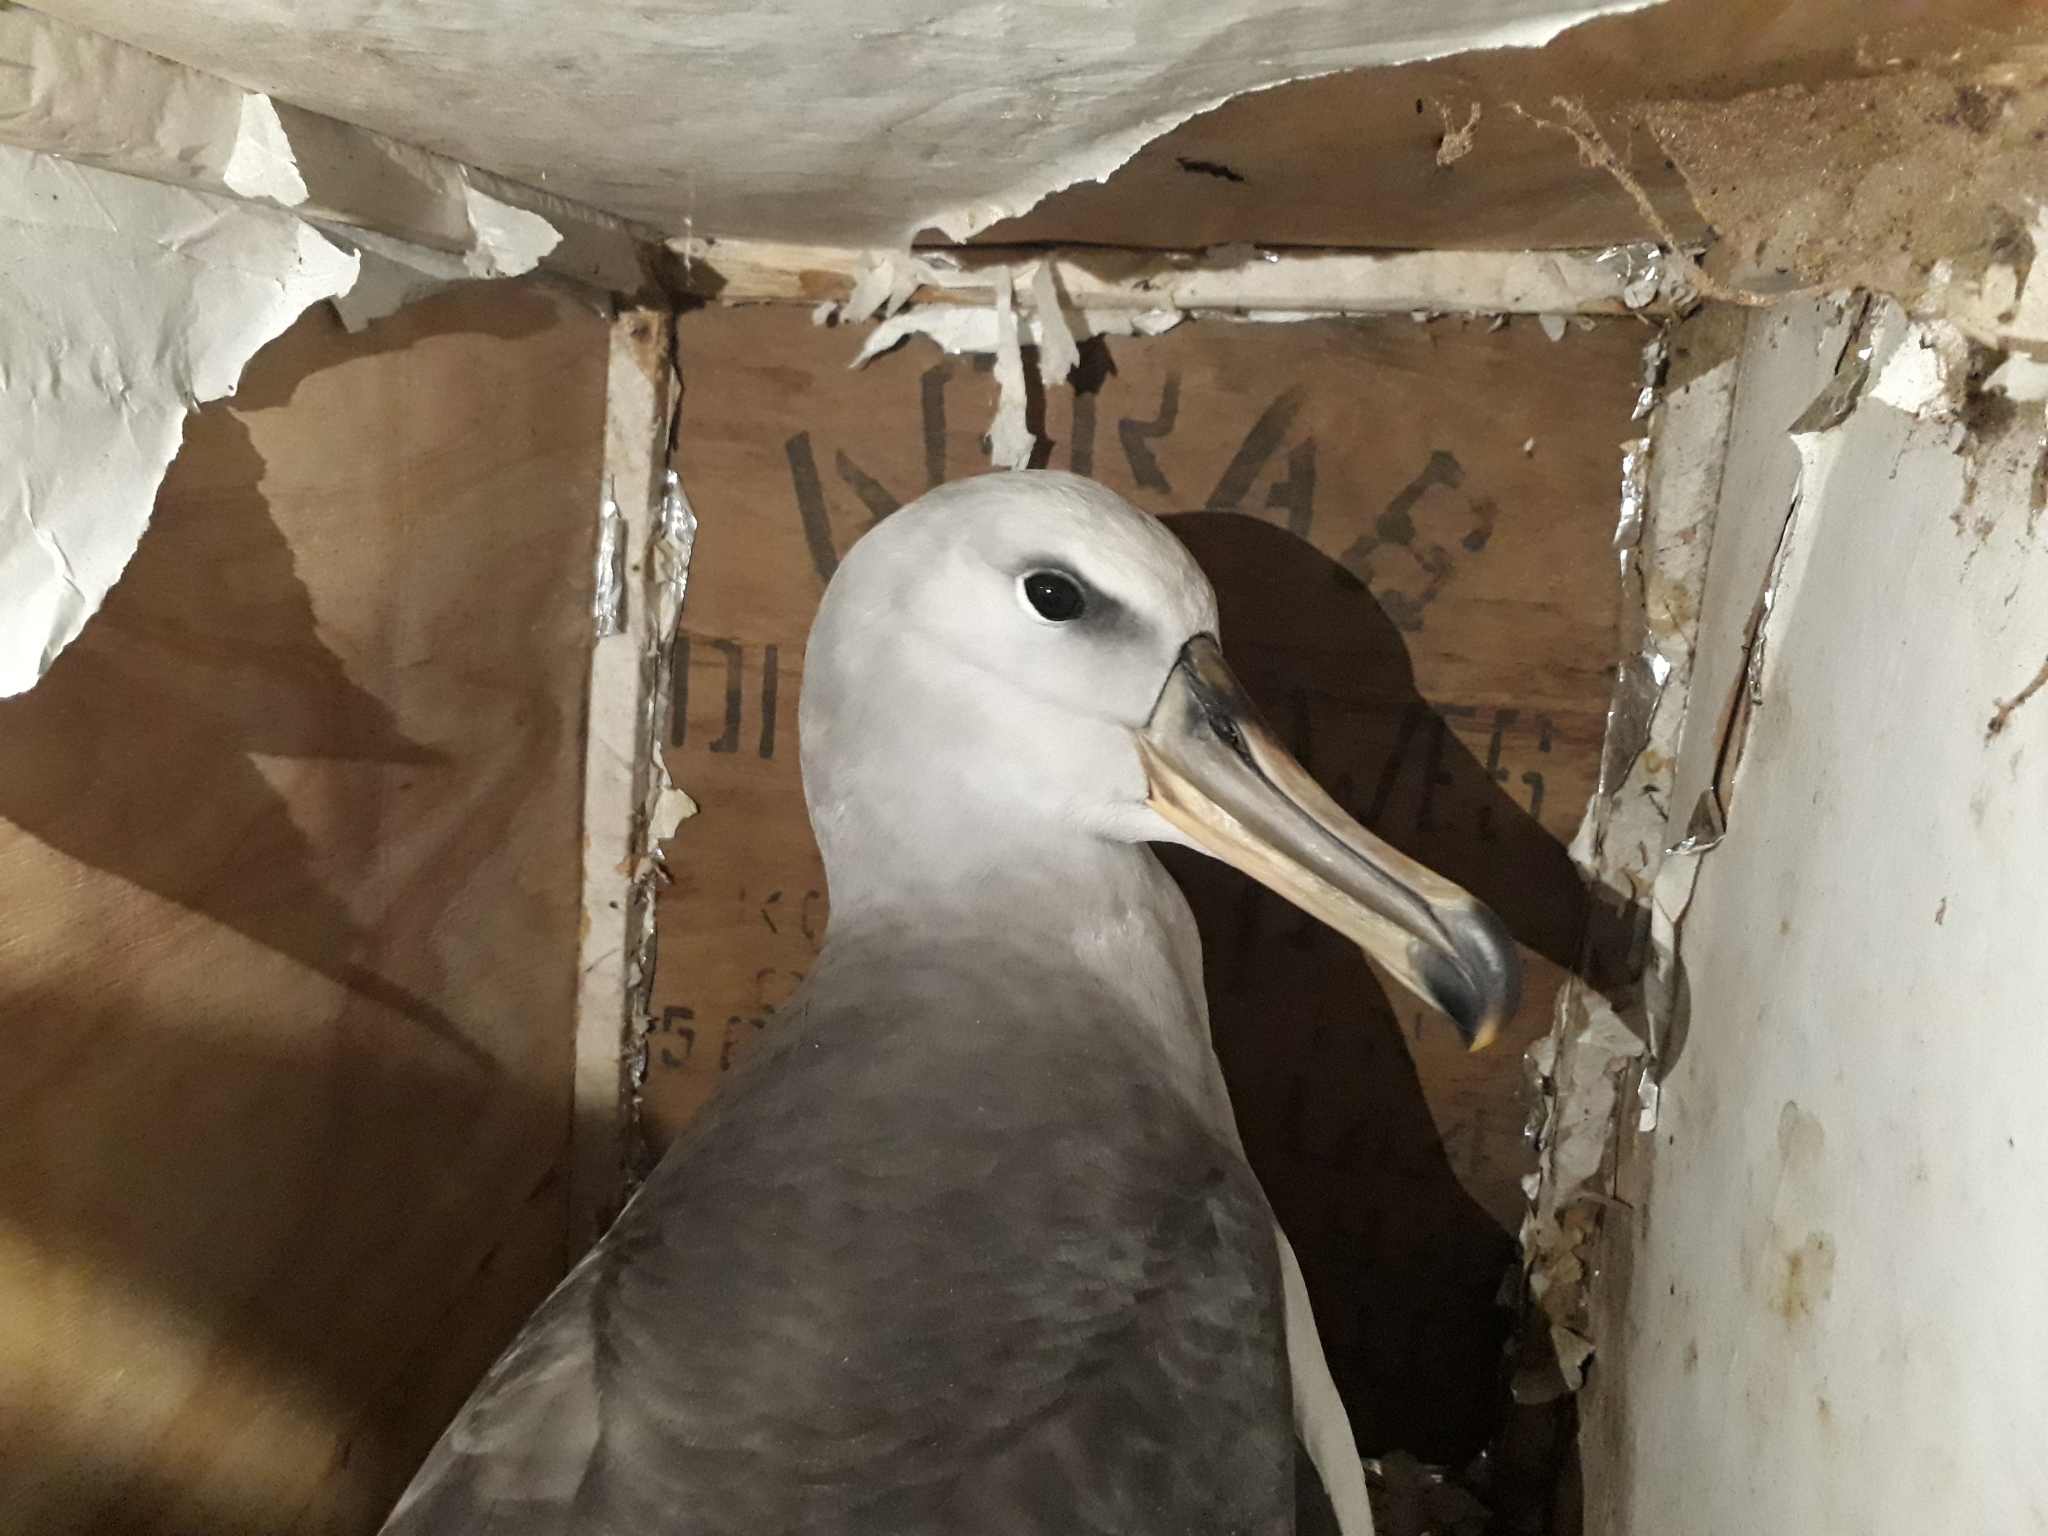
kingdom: Animalia
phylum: Chordata
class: Aves
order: Procellariiformes
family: Diomedeidae
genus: Thalassarche
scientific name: Thalassarche bulleri
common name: Buller's albatross
